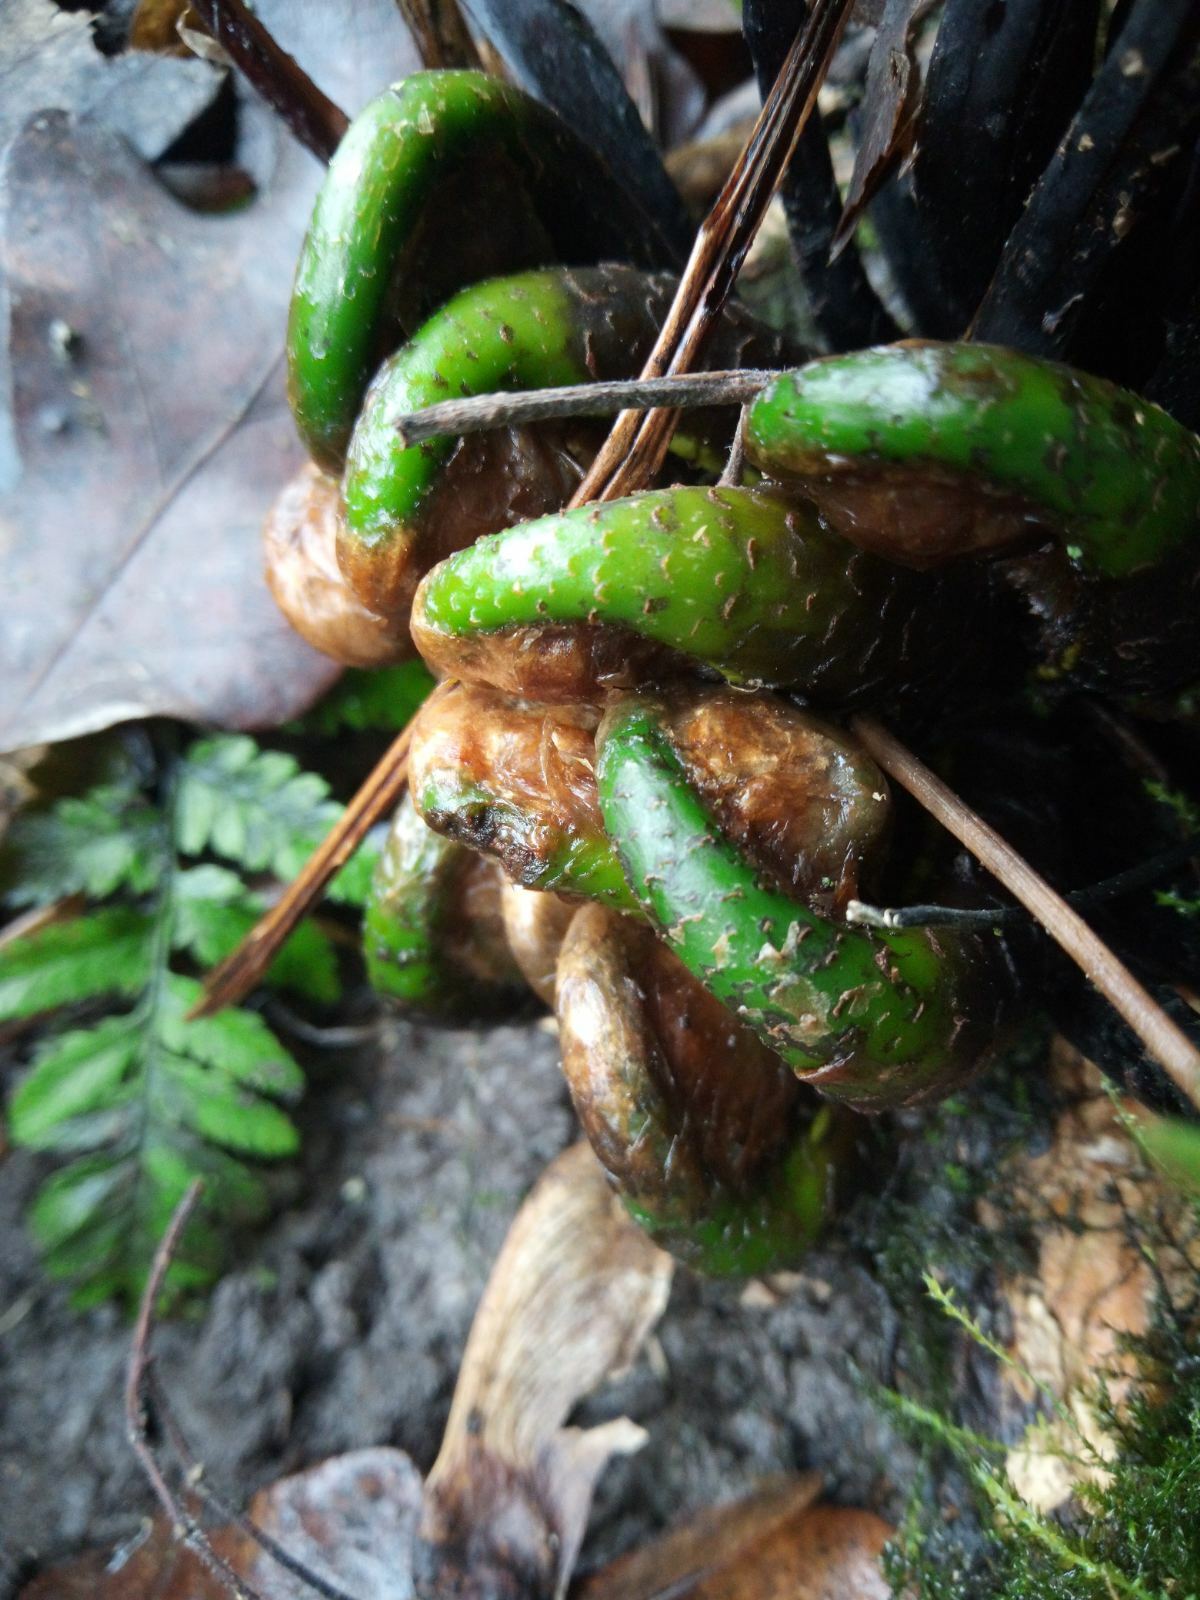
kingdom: Plantae
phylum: Tracheophyta
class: Polypodiopsida
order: Polypodiales
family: Dryopteridaceae
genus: Dryopteris
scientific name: Dryopteris carthusiana
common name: Narrow buckler-fern
